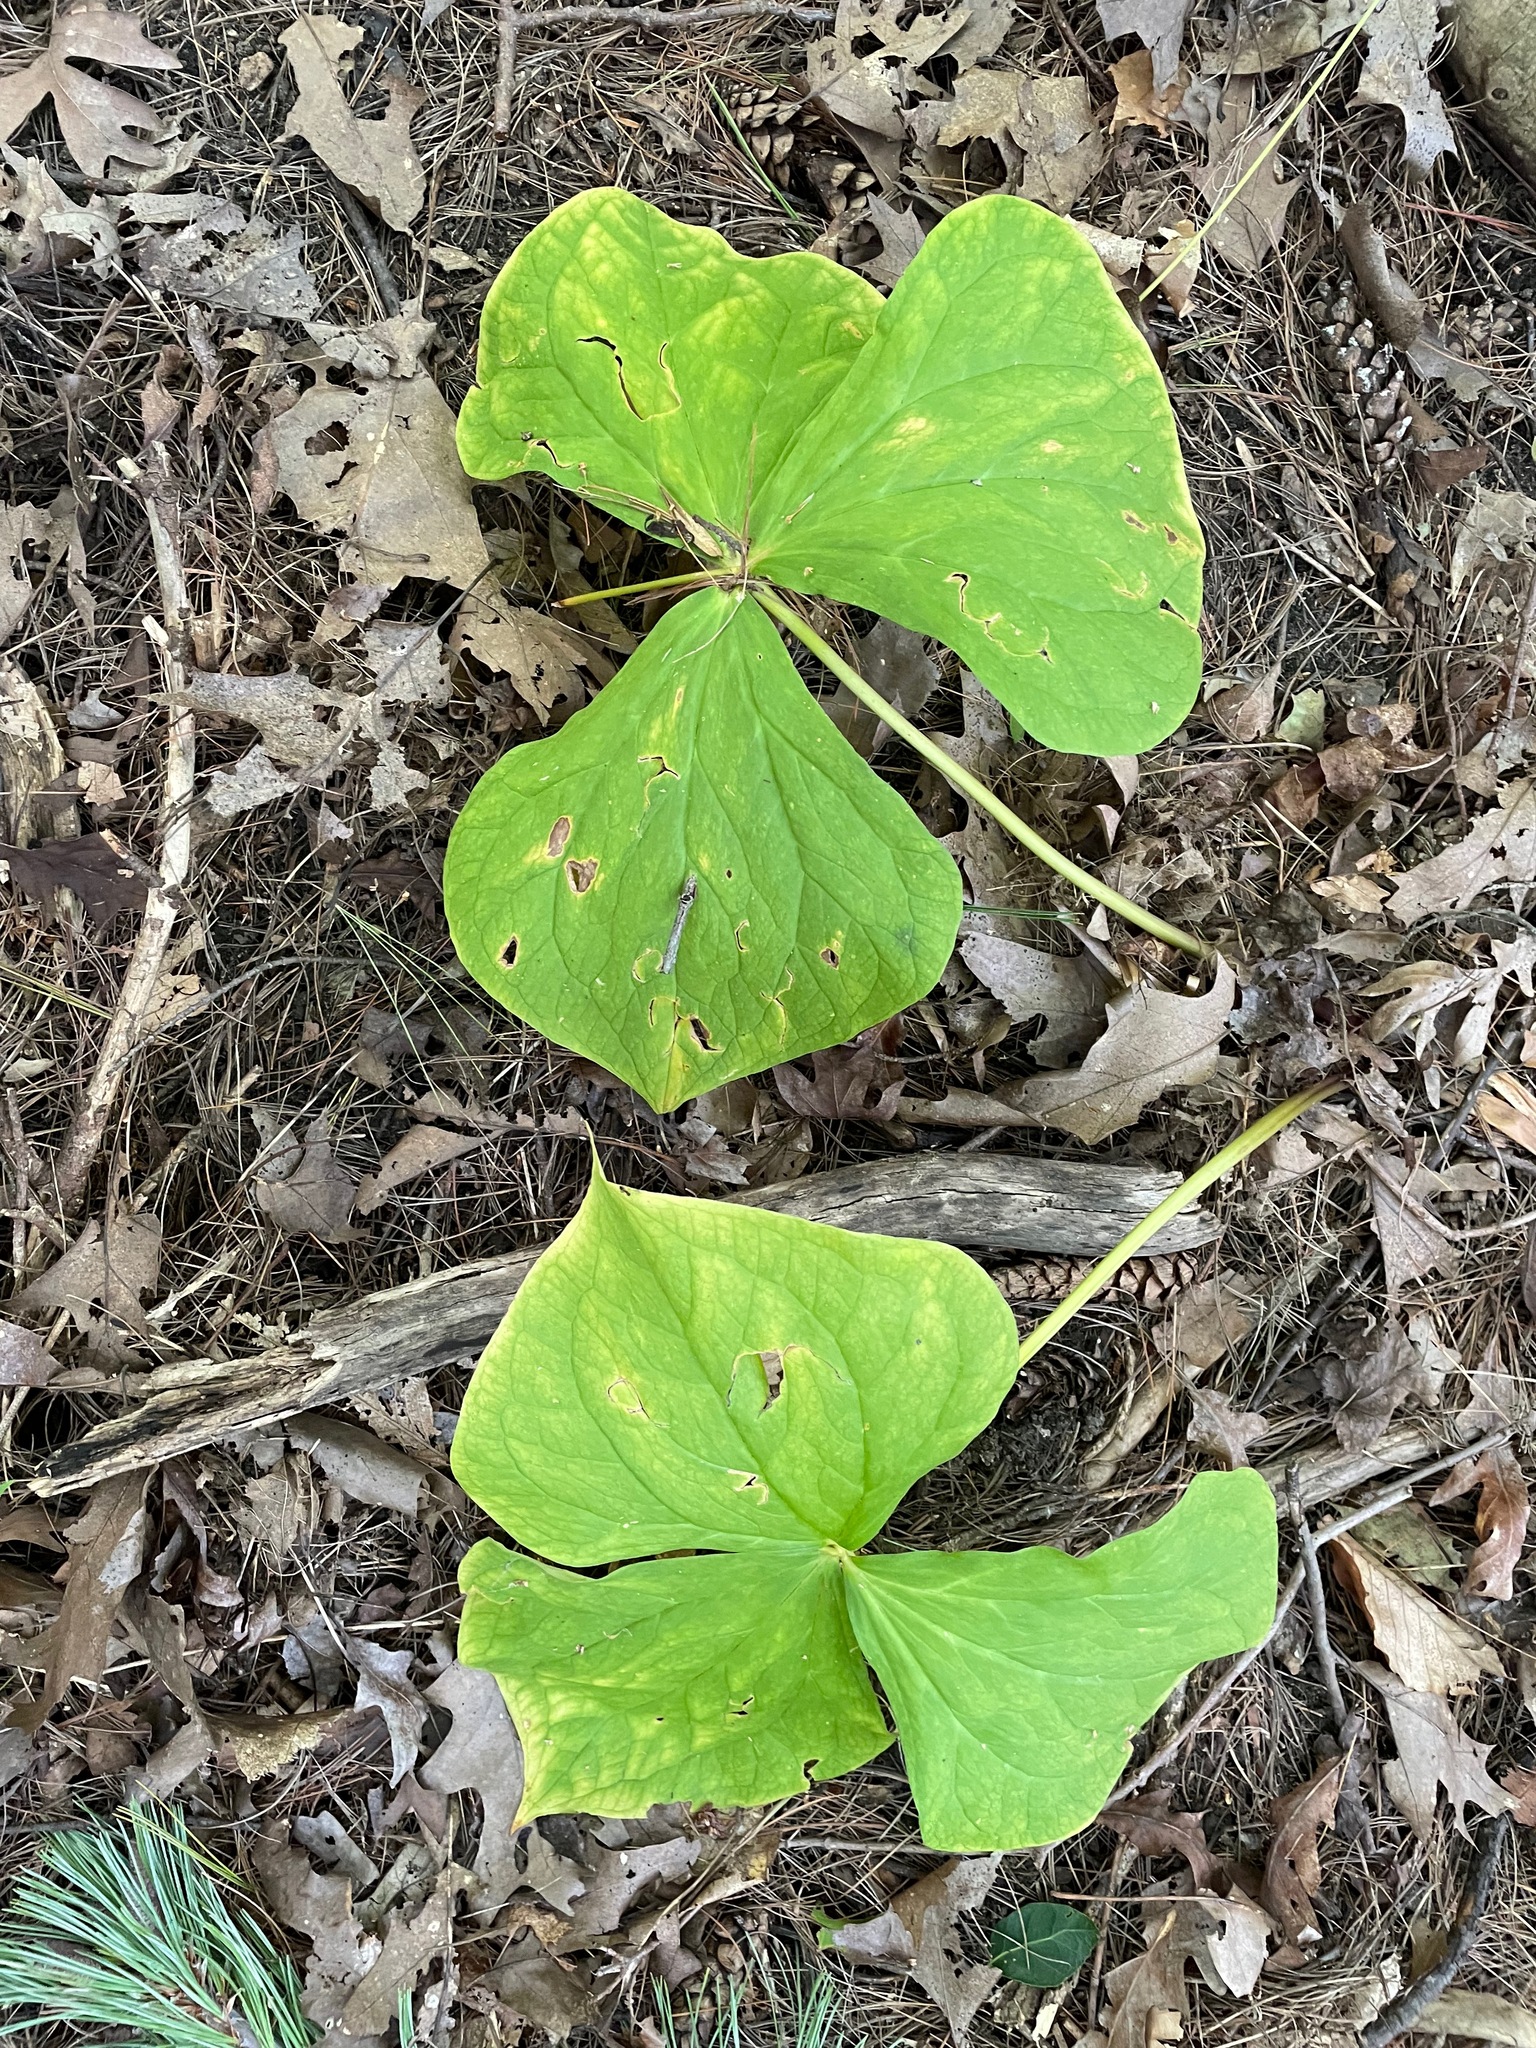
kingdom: Plantae
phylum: Tracheophyta
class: Liliopsida
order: Liliales
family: Melanthiaceae
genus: Trillium
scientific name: Trillium erectum
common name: Purple trillium
